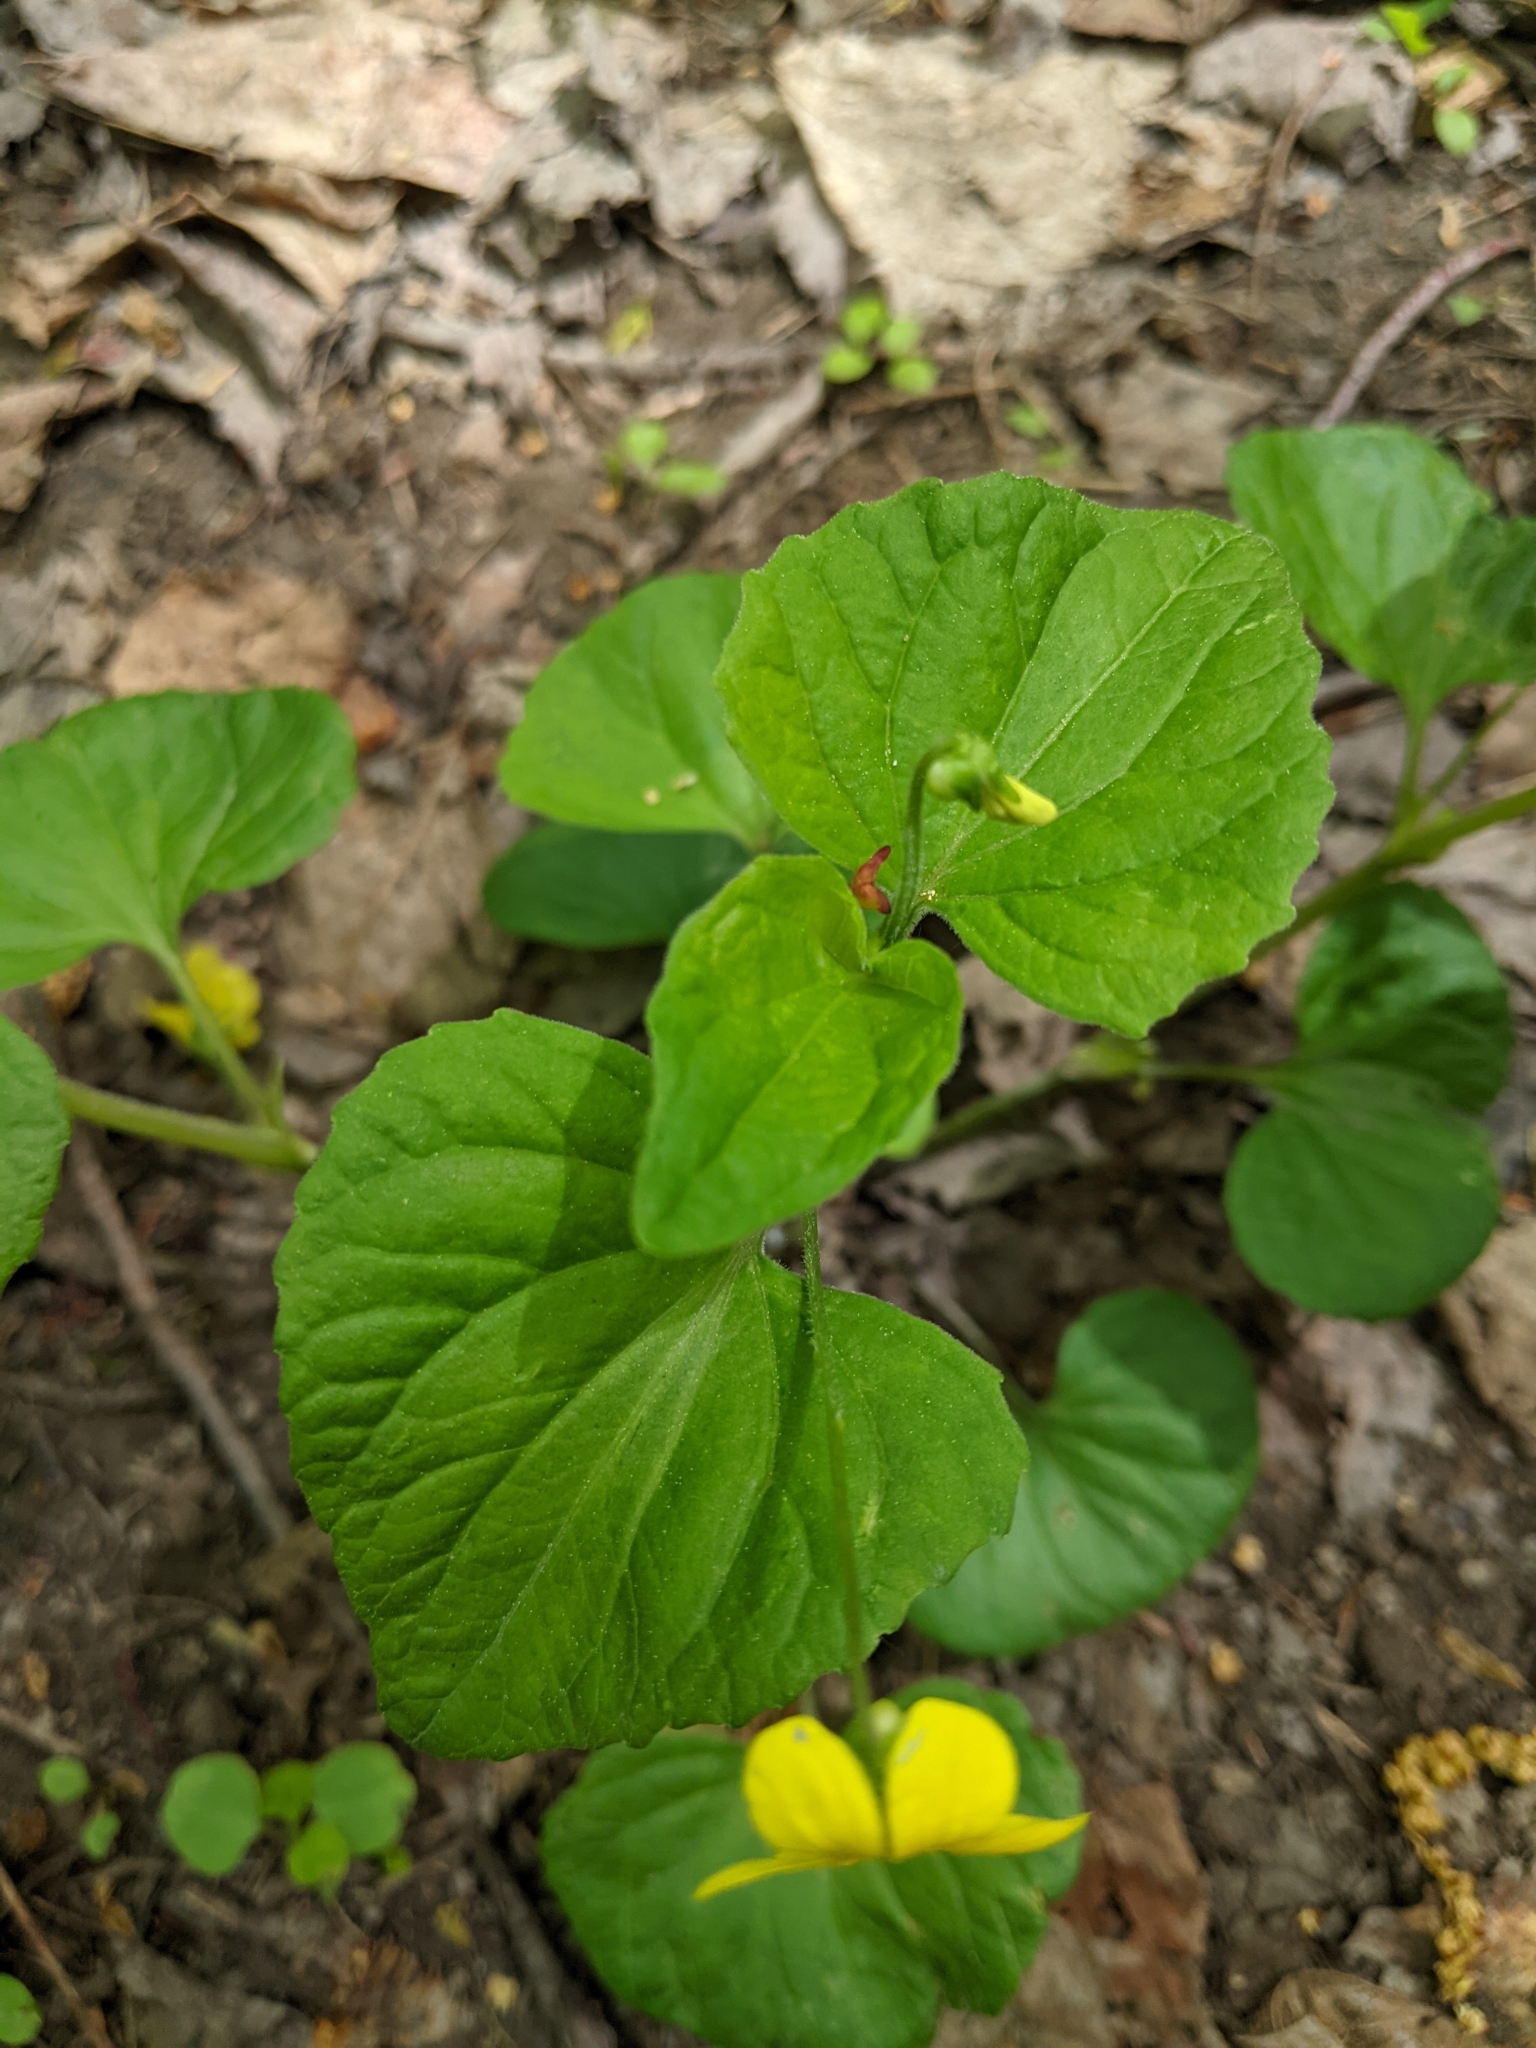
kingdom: Plantae
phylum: Tracheophyta
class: Magnoliopsida
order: Malpighiales
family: Violaceae
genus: Viola
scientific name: Viola eriocarpa
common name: Smooth yellow violet
